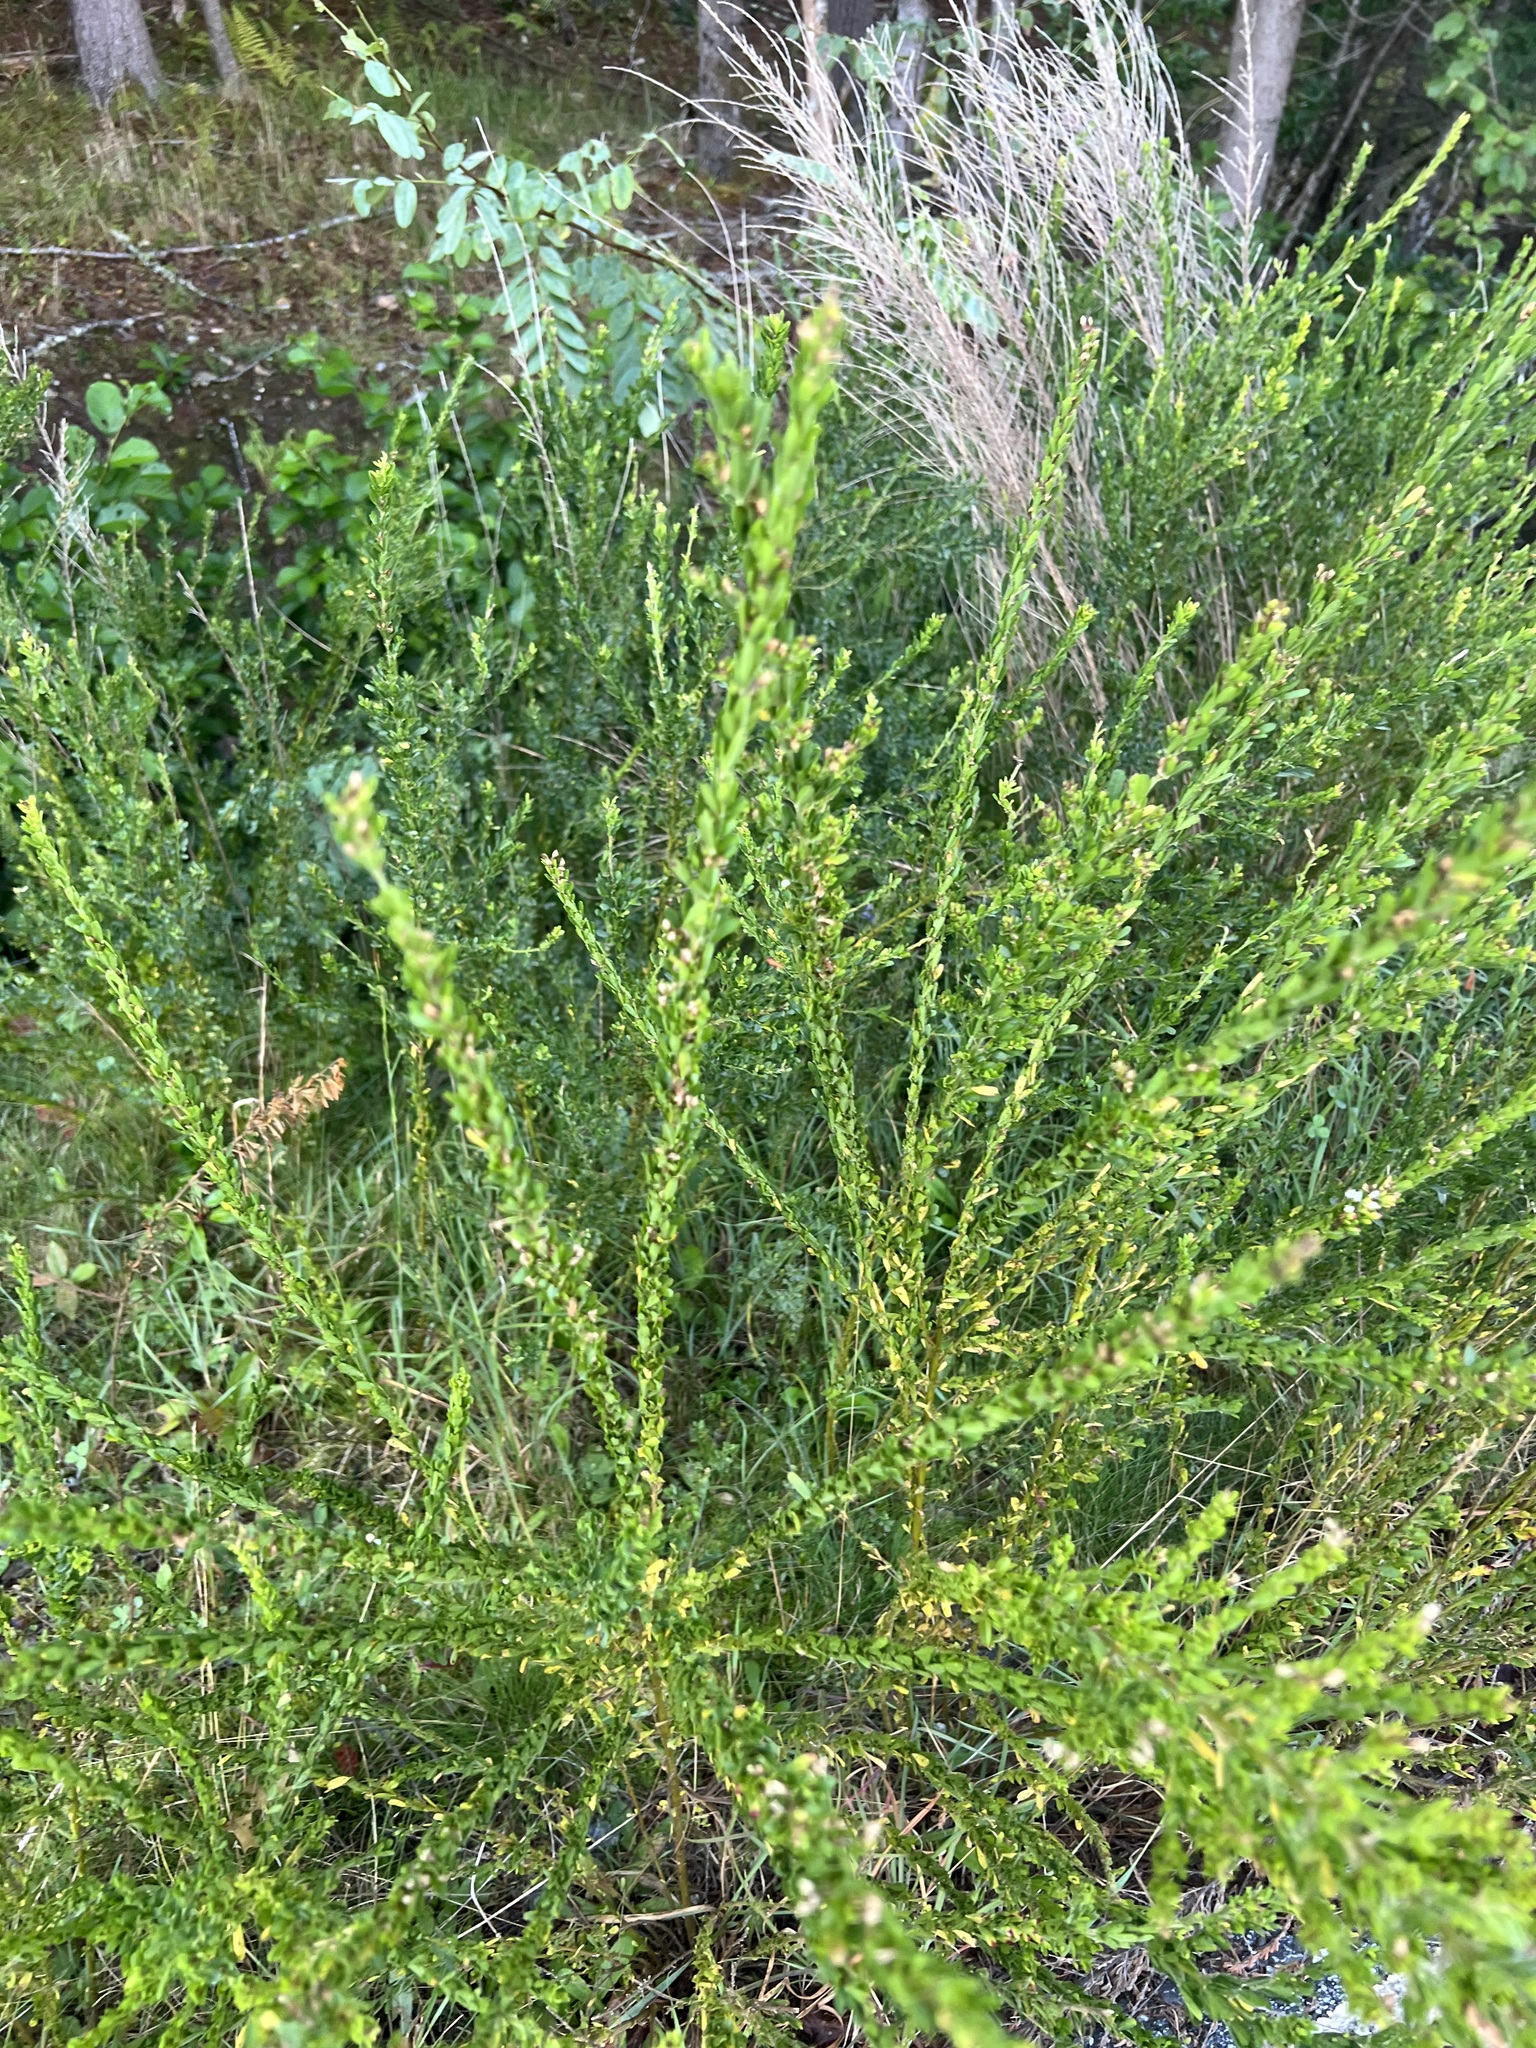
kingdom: Plantae
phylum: Tracheophyta
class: Magnoliopsida
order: Fabales
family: Fabaceae
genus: Lespedeza
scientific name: Lespedeza cuneata
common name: Chinese bush-clover
